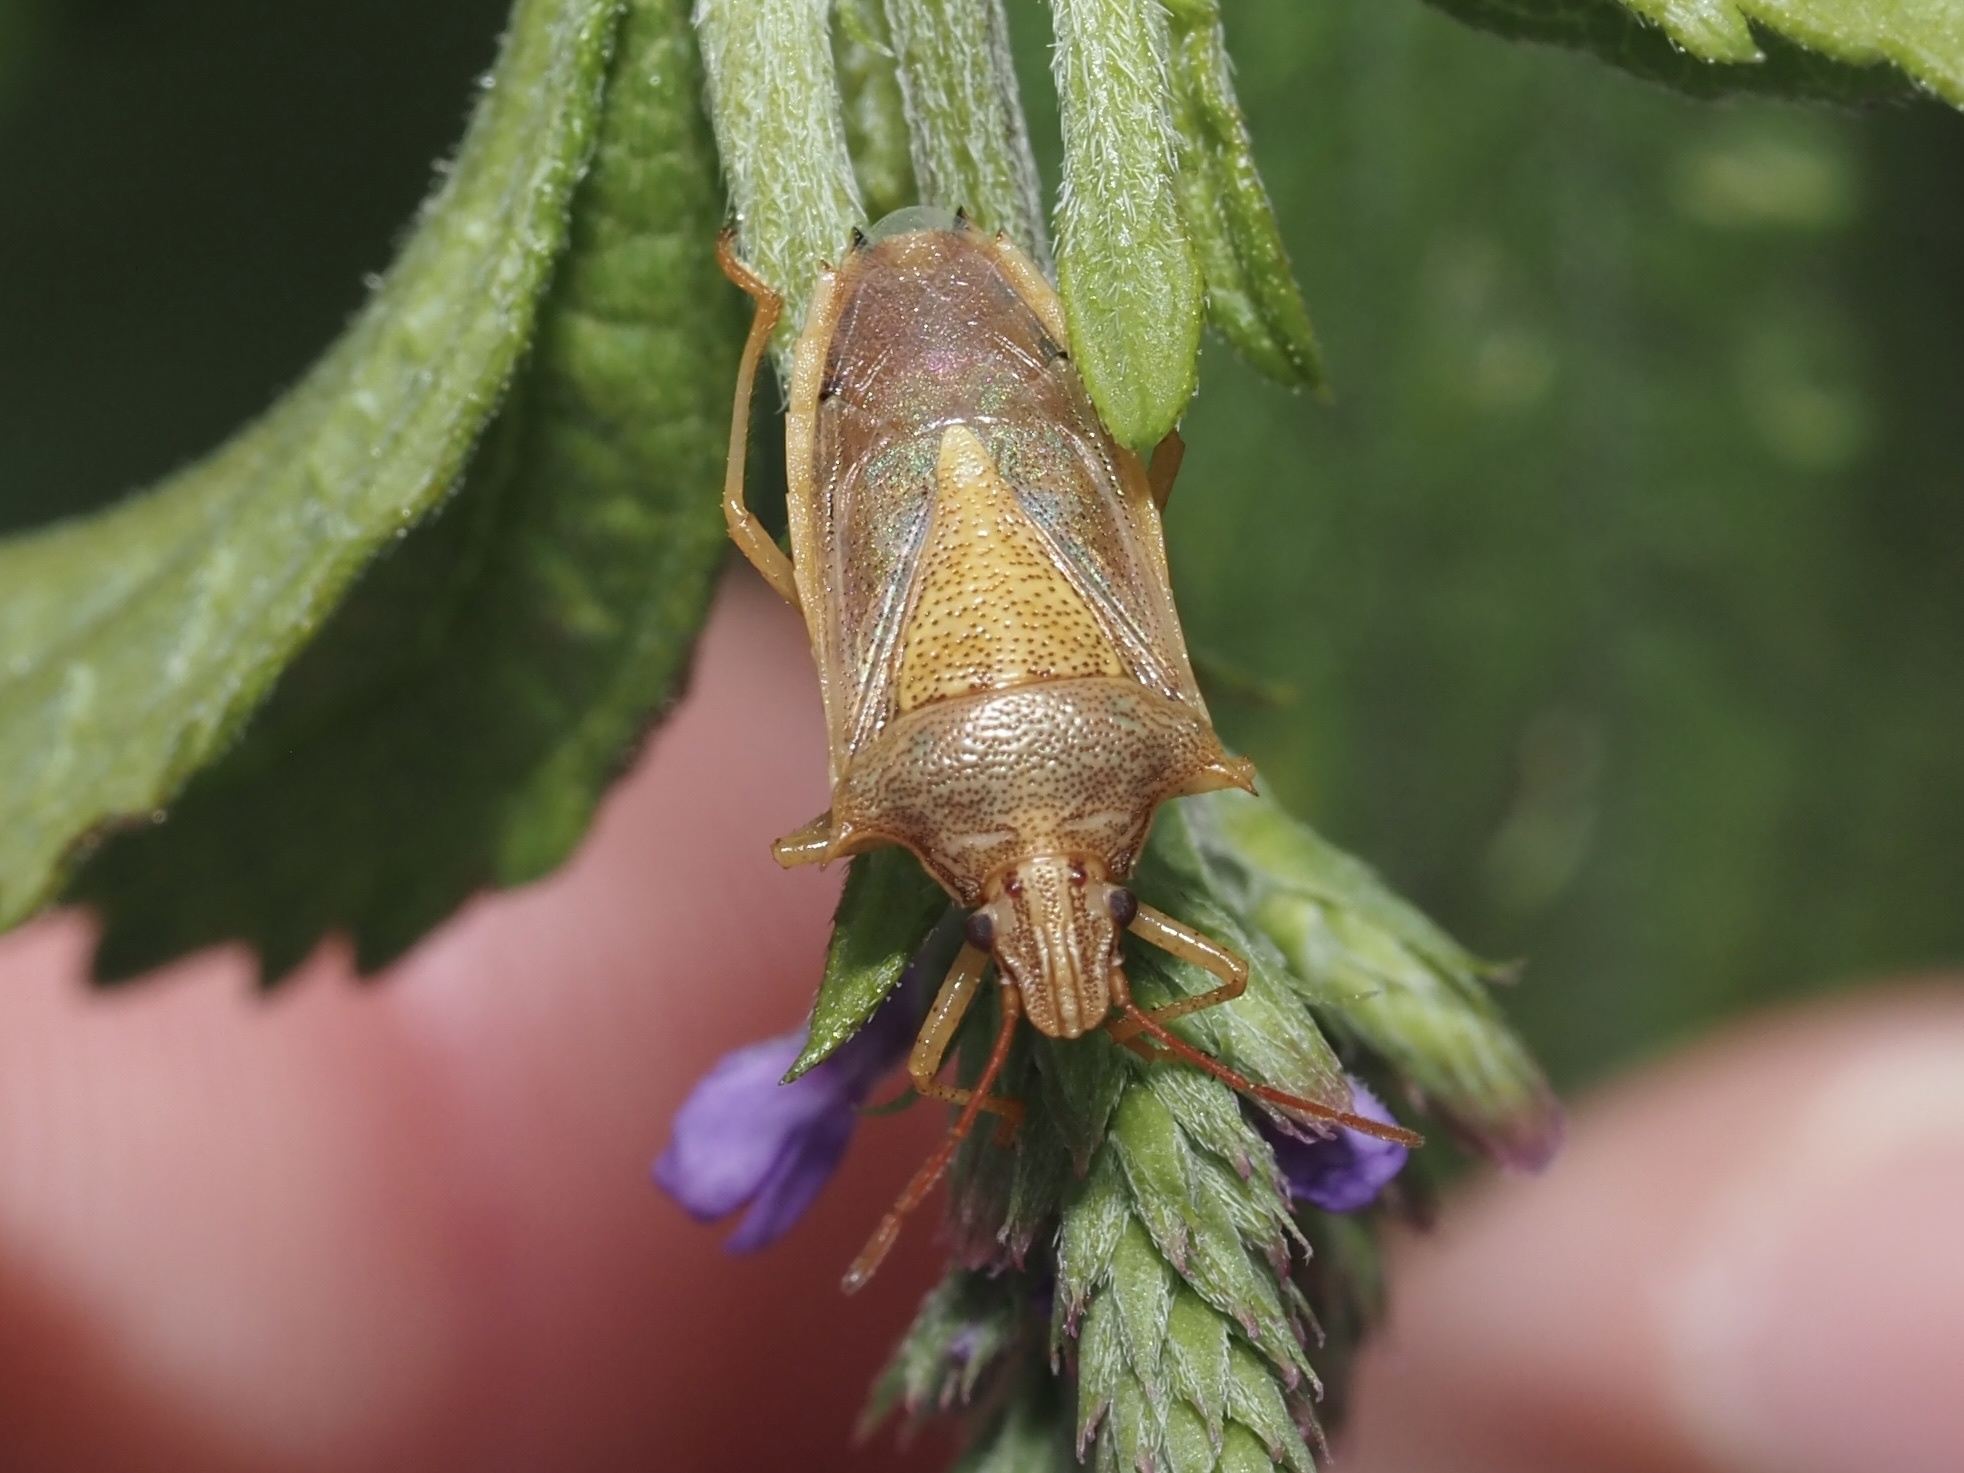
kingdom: Animalia
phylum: Arthropoda
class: Insecta
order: Hemiptera
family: Pentatomidae
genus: Oebalus
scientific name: Oebalus pugnax
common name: Rice stink bug
